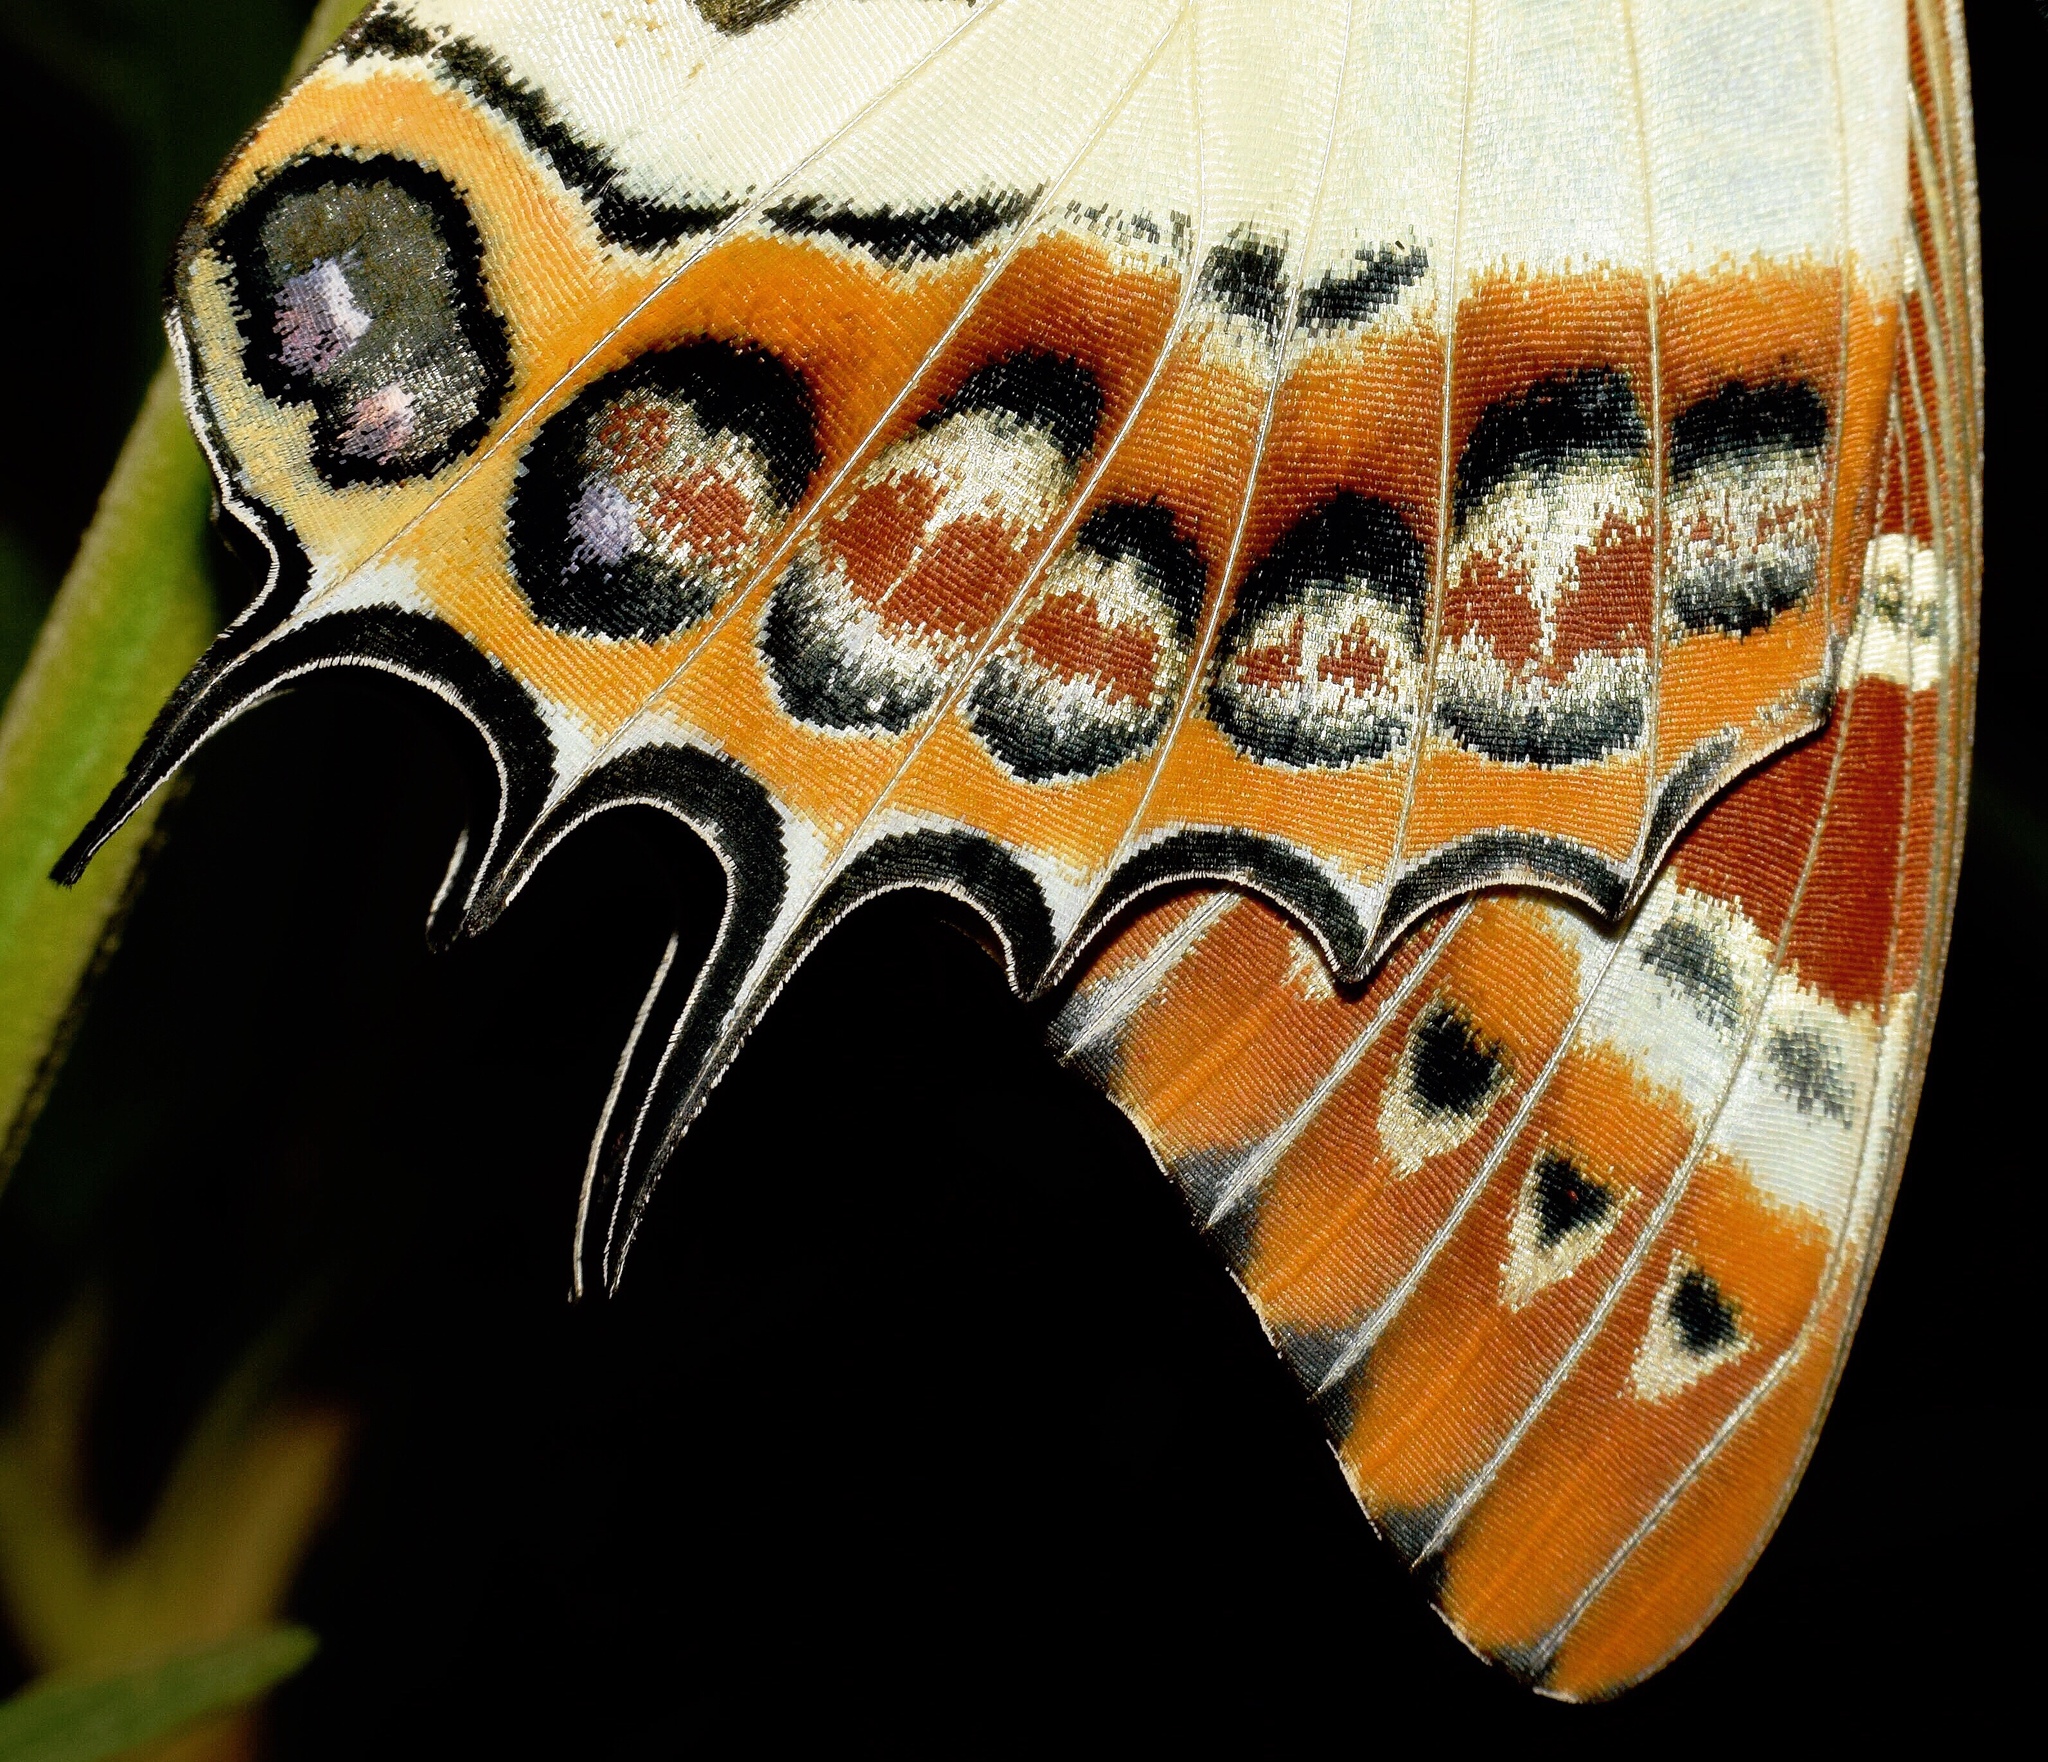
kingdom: Animalia
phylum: Arthropoda
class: Insecta
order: Lepidoptera
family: Nymphalidae
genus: Charaxes
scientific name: Charaxes brutus
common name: White-barred charaxes
